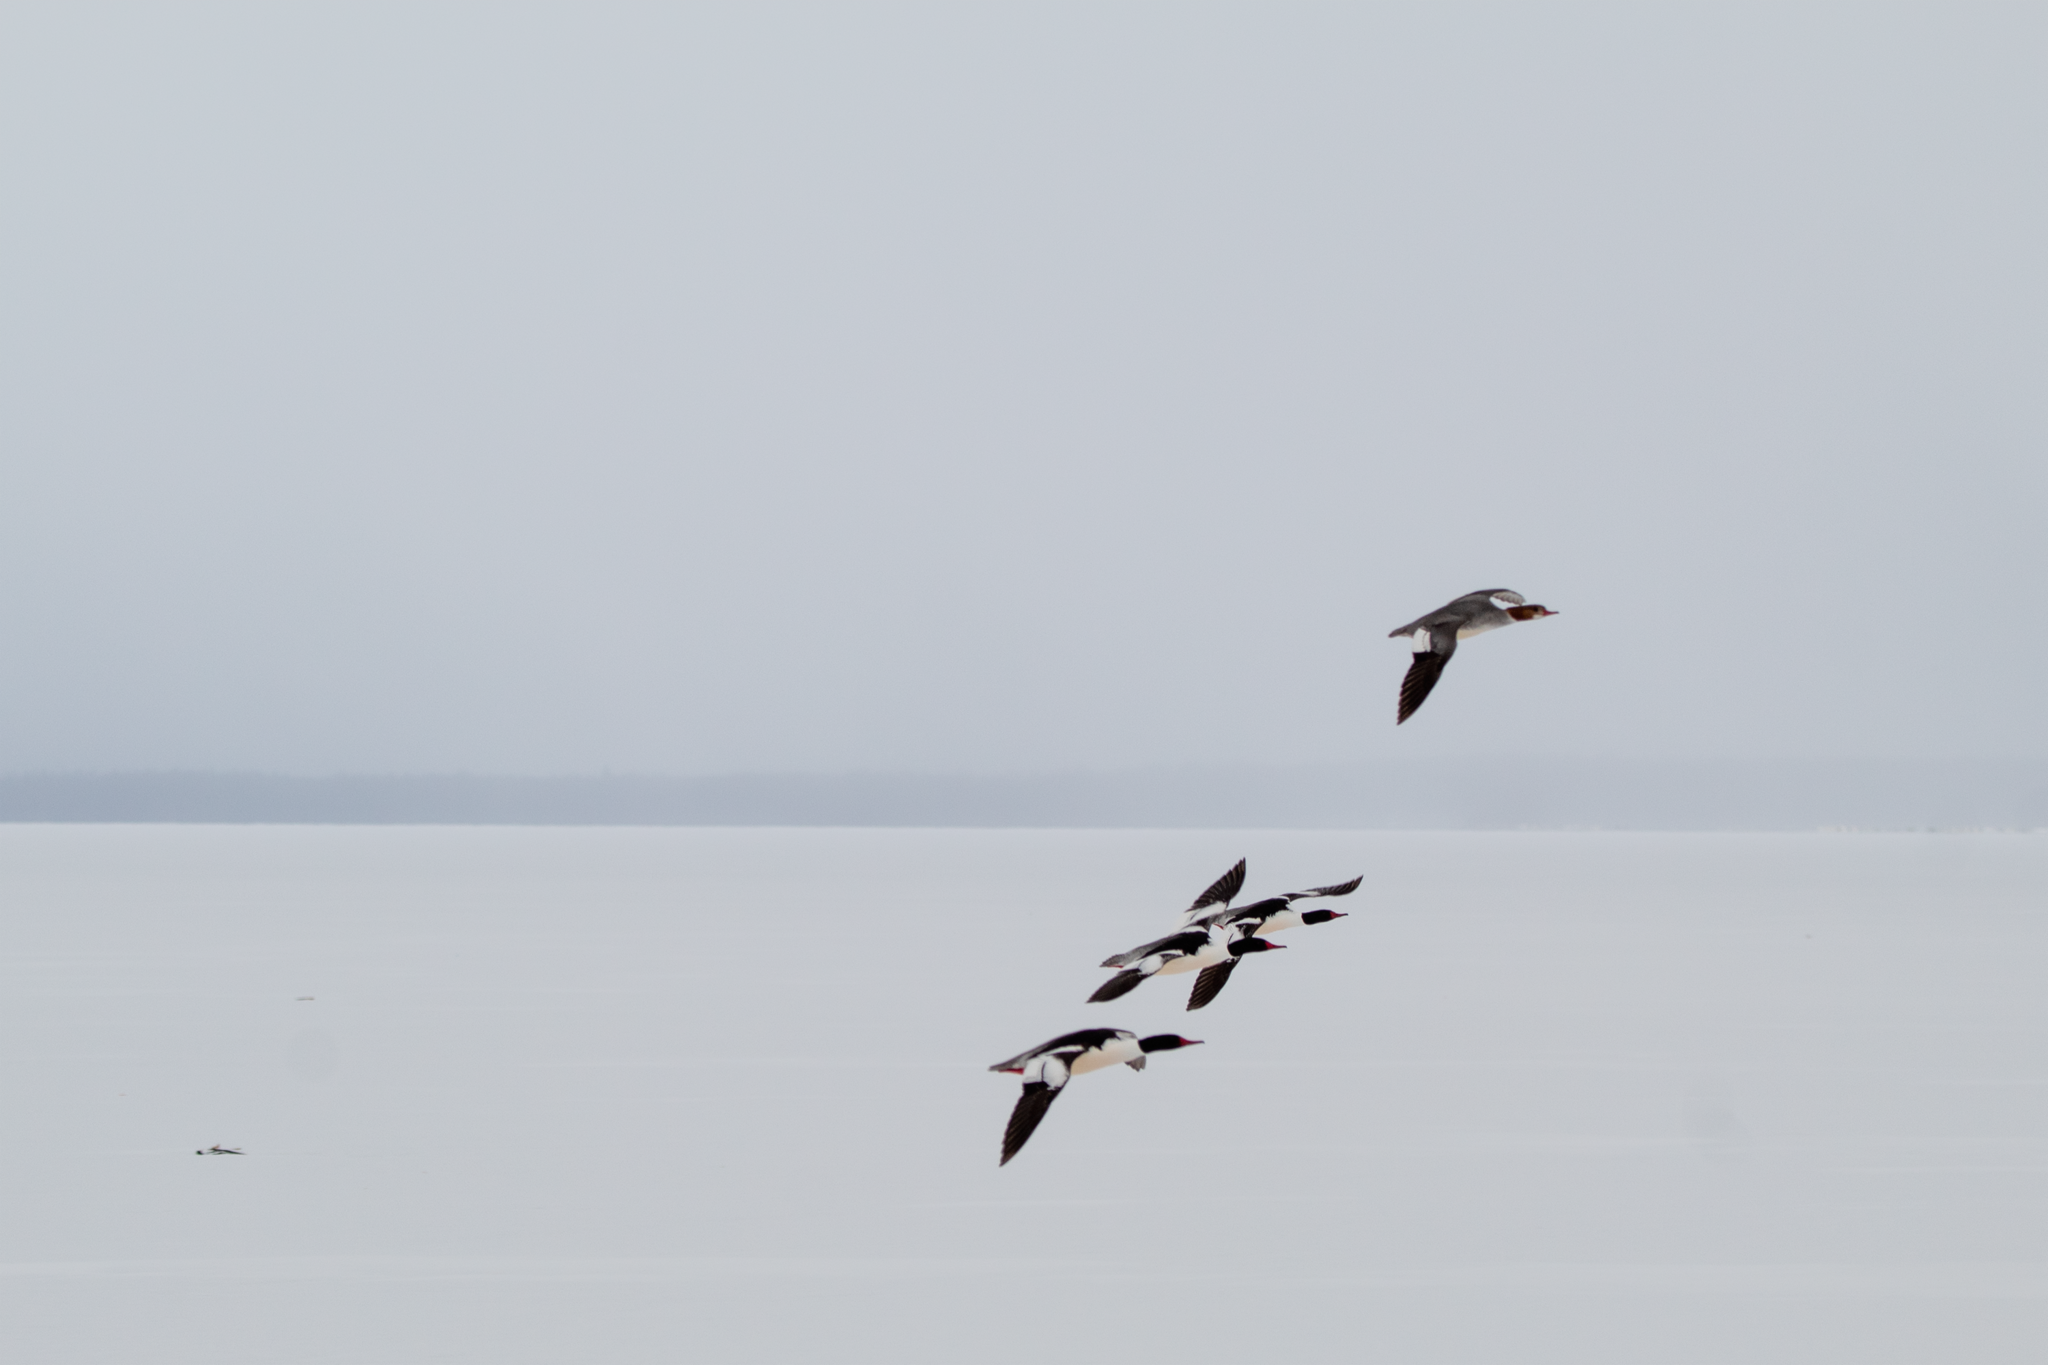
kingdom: Animalia
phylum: Chordata
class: Aves
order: Anseriformes
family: Anatidae
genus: Mergus
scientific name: Mergus merganser
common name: Common merganser
